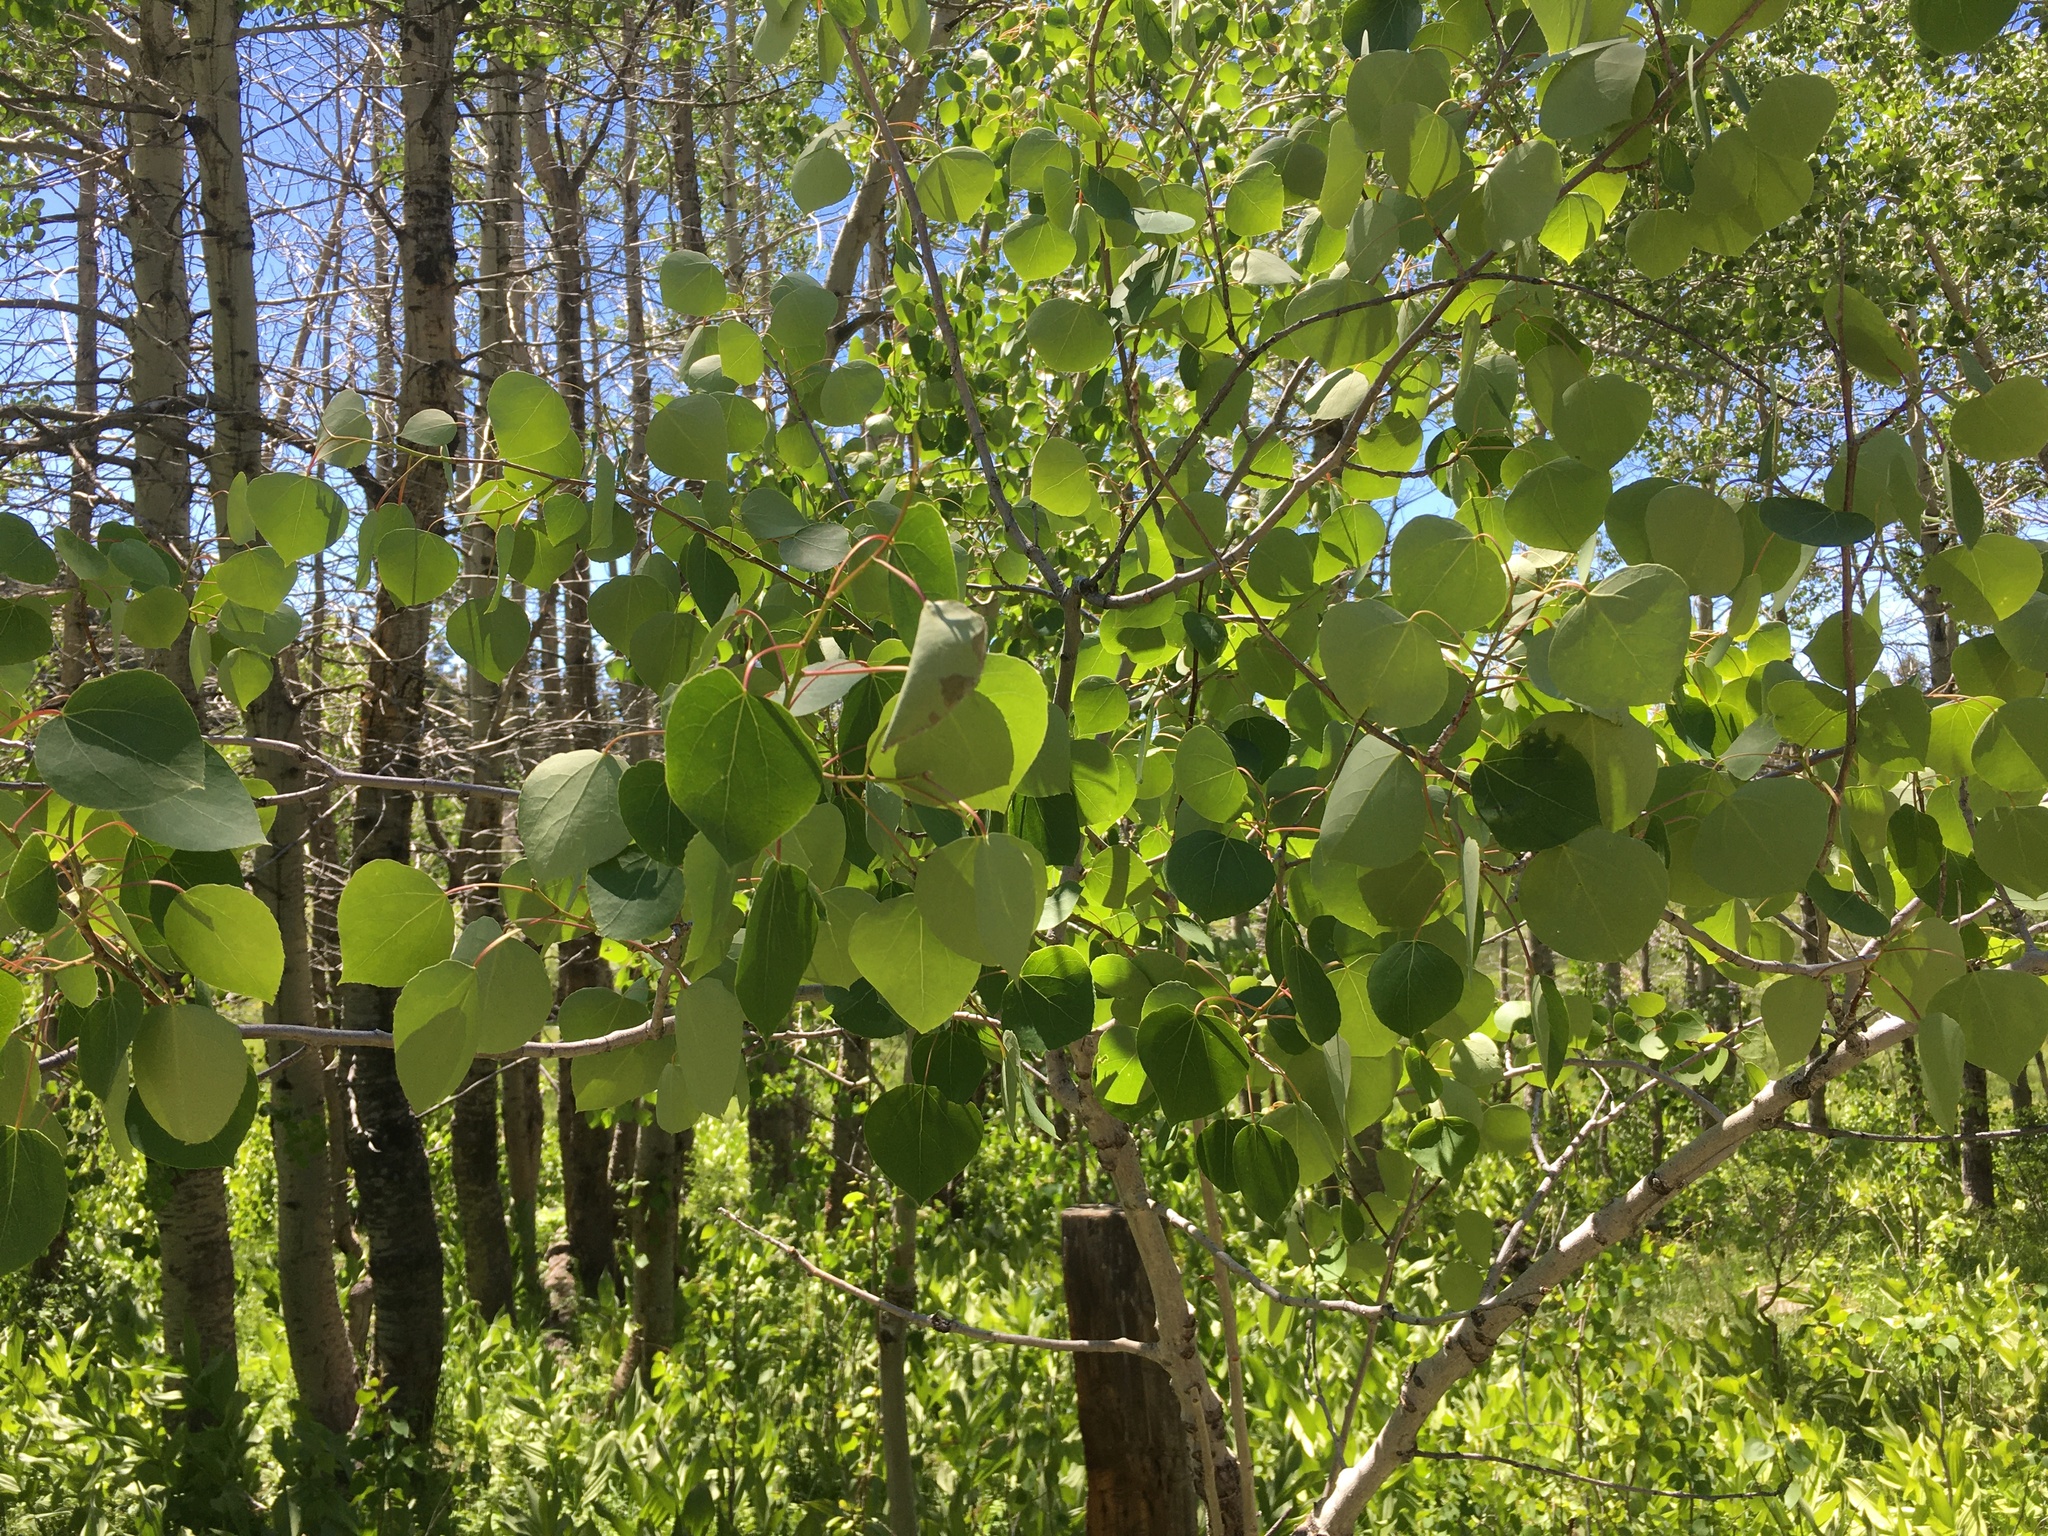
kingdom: Plantae
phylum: Tracheophyta
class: Magnoliopsida
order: Malpighiales
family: Salicaceae
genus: Populus
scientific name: Populus tremuloides
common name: Quaking aspen
